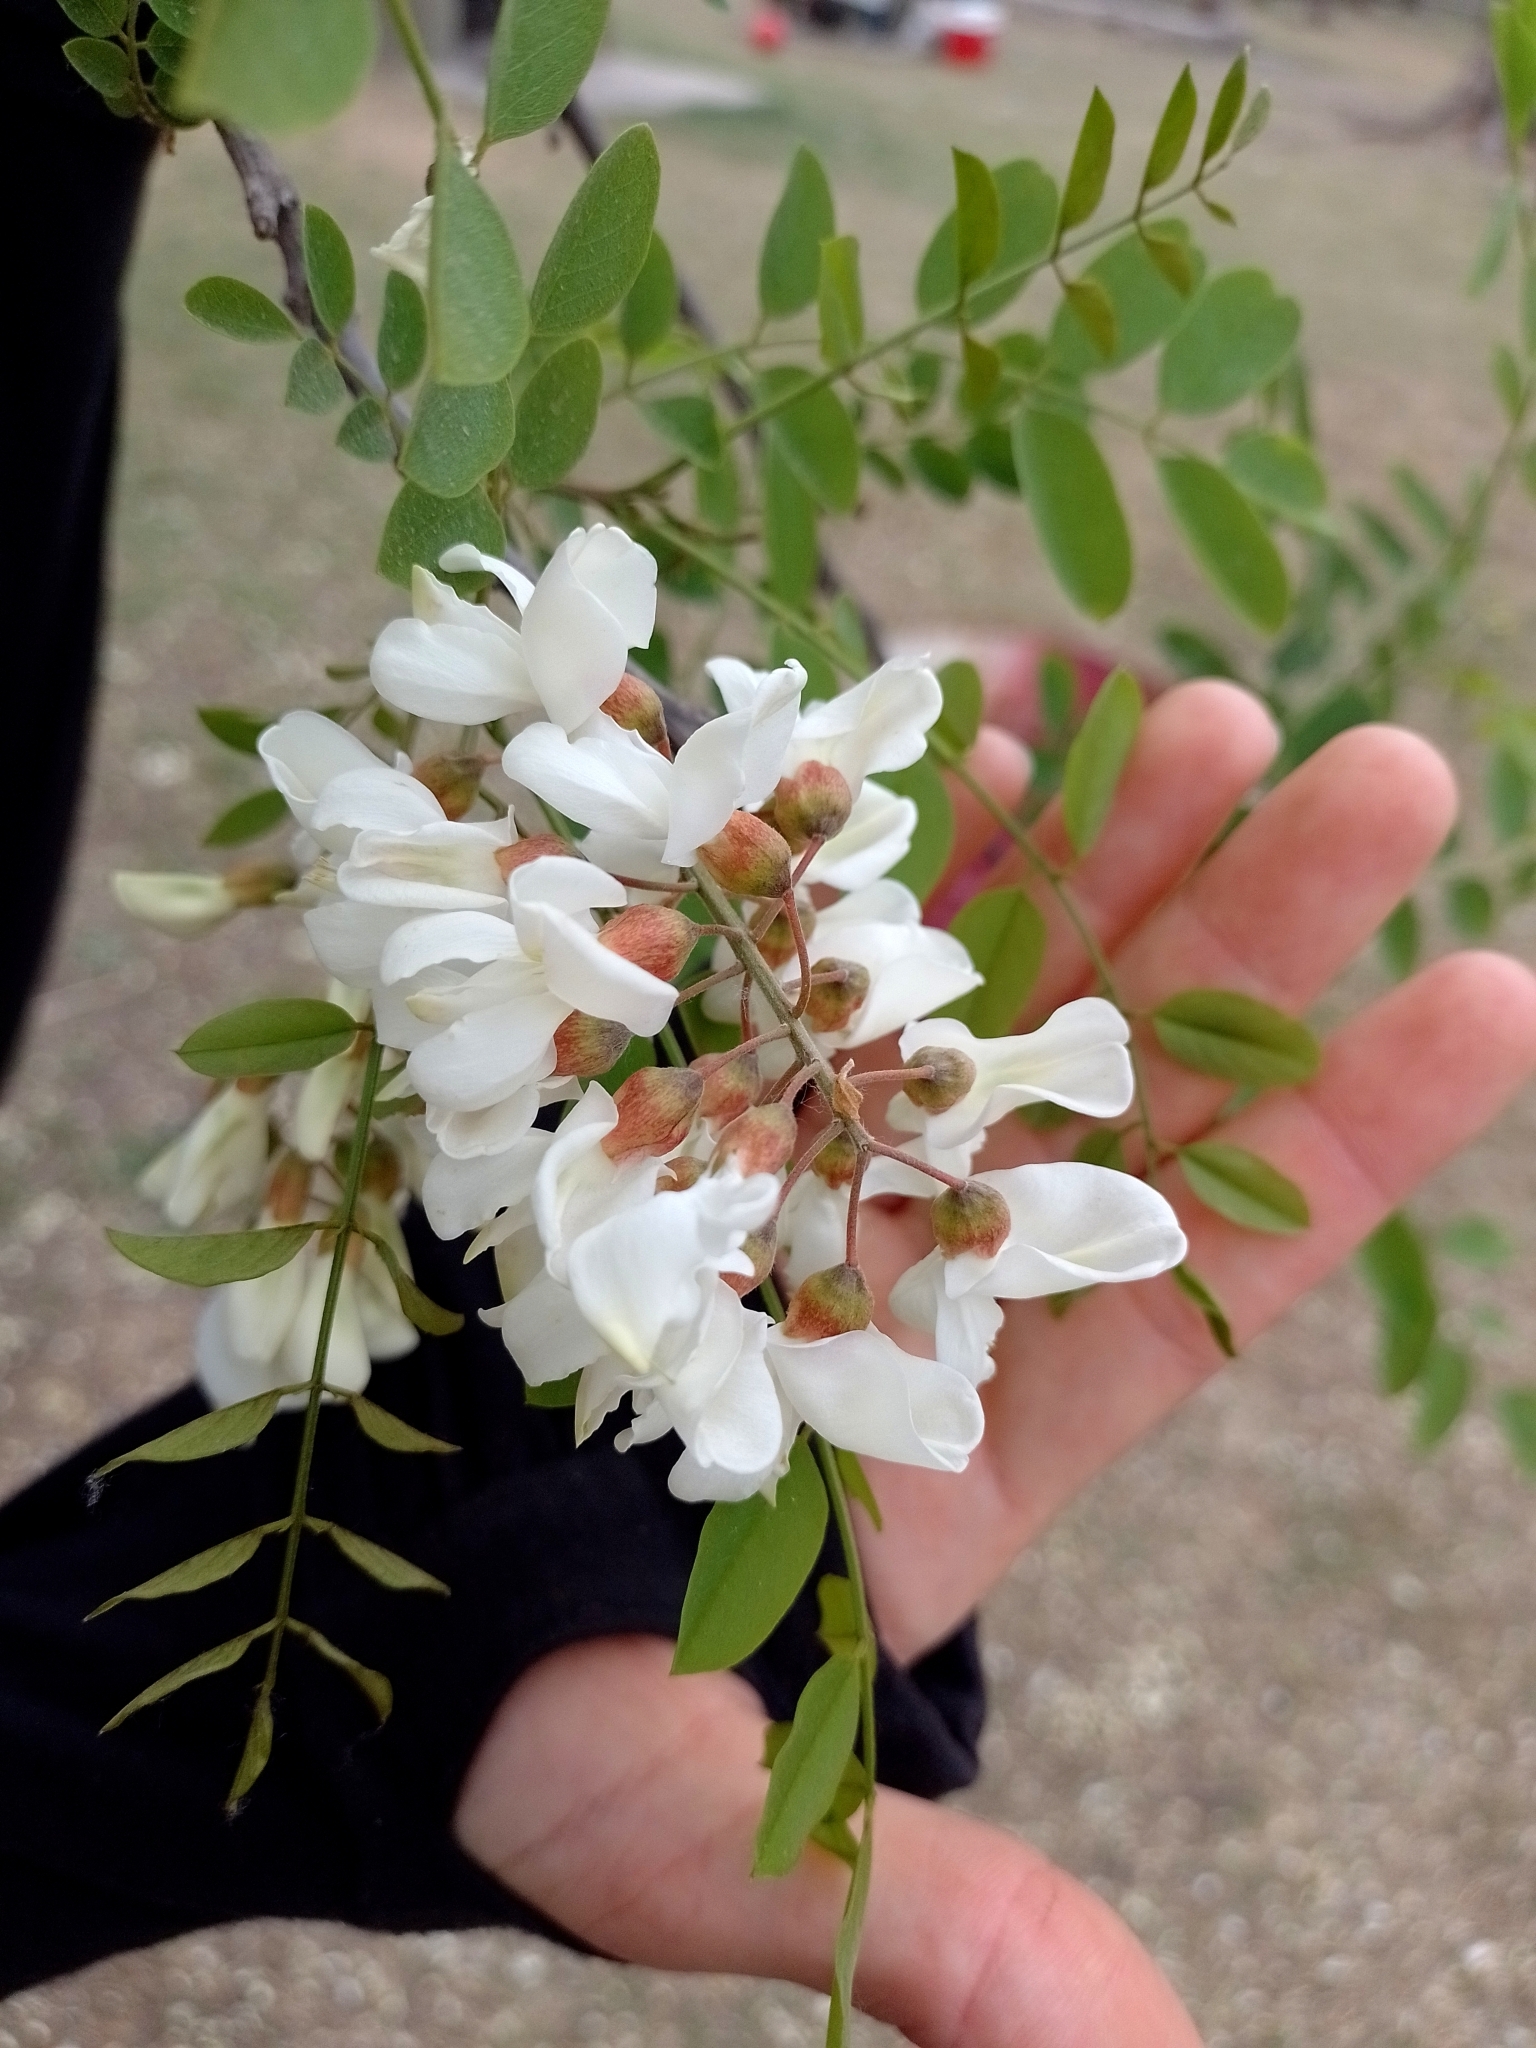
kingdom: Plantae
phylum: Tracheophyta
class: Magnoliopsida
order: Fabales
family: Fabaceae
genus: Robinia
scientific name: Robinia pseudoacacia
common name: Black locust
